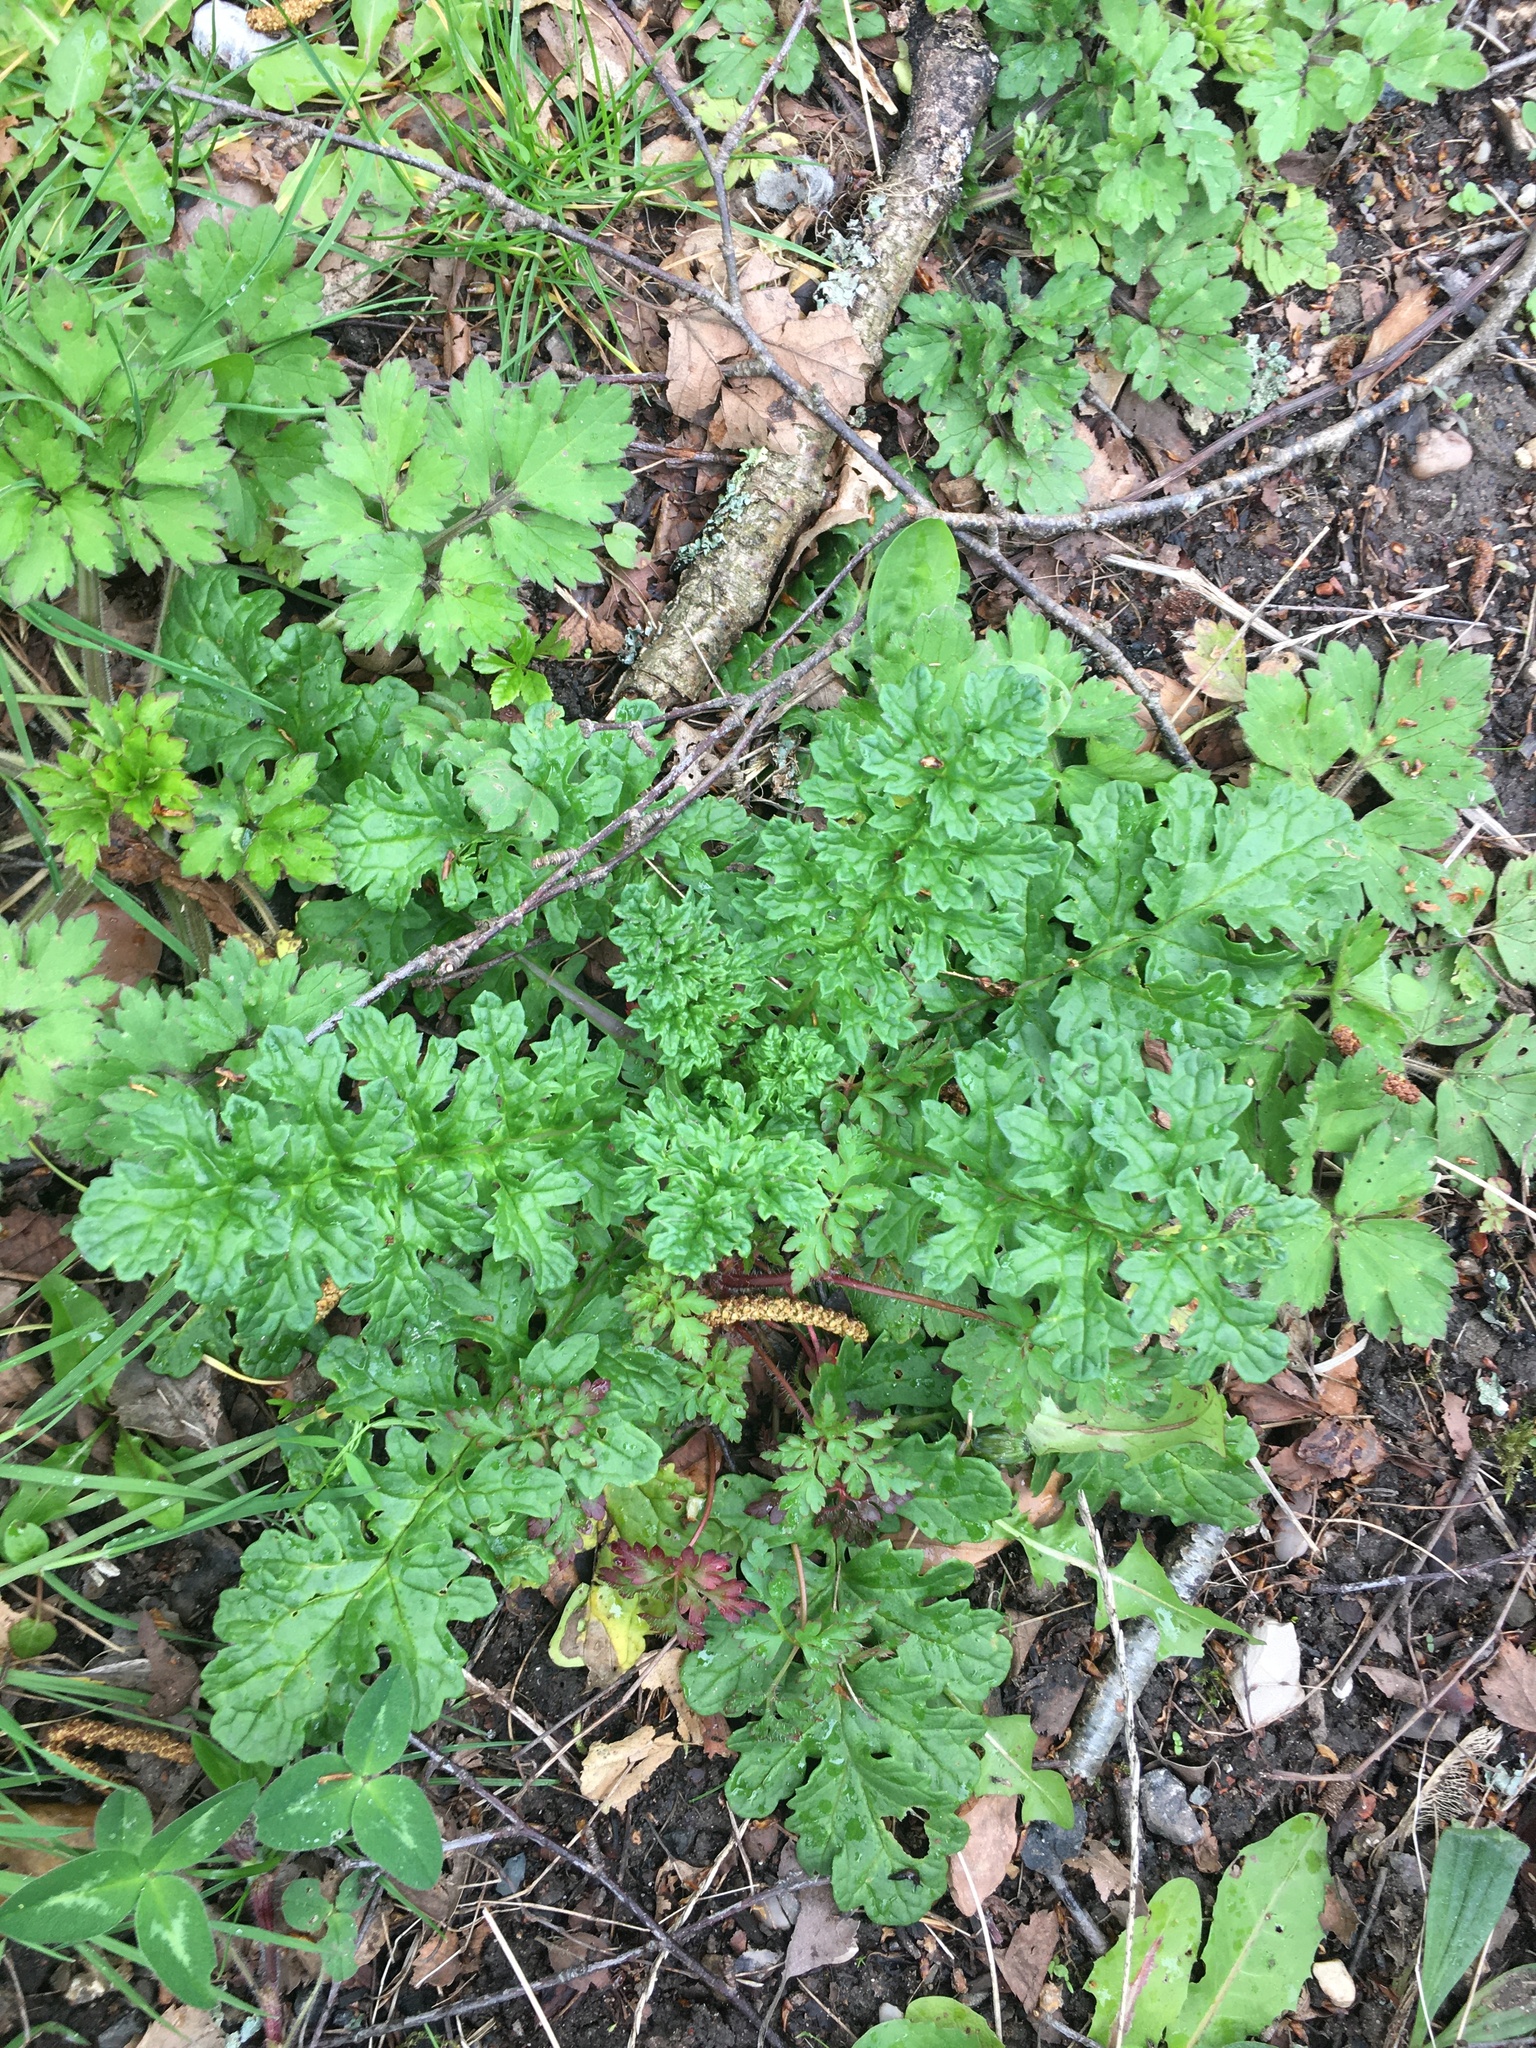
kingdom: Plantae
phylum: Tracheophyta
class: Magnoliopsida
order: Asterales
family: Asteraceae
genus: Jacobaea
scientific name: Jacobaea vulgaris
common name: Stinking willie
